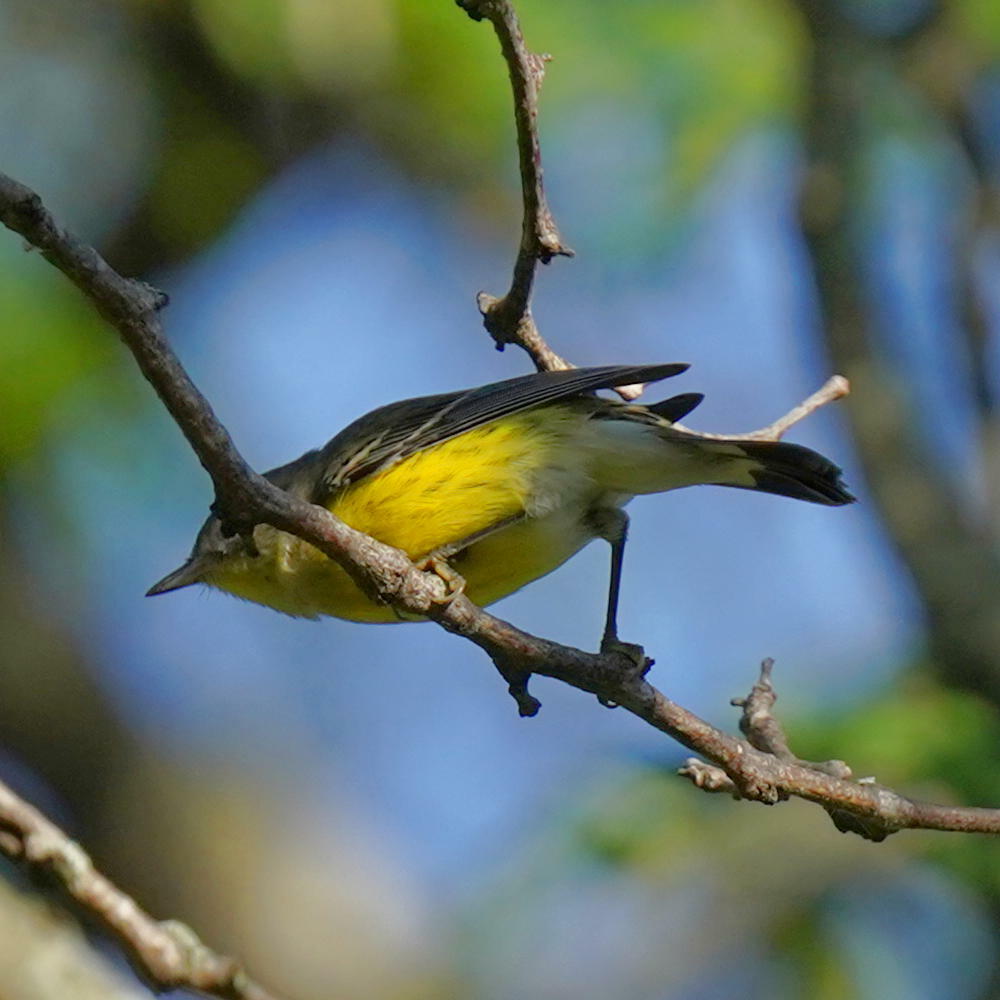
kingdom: Animalia
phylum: Chordata
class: Aves
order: Passeriformes
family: Parulidae
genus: Setophaga
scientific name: Setophaga magnolia
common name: Magnolia warbler
